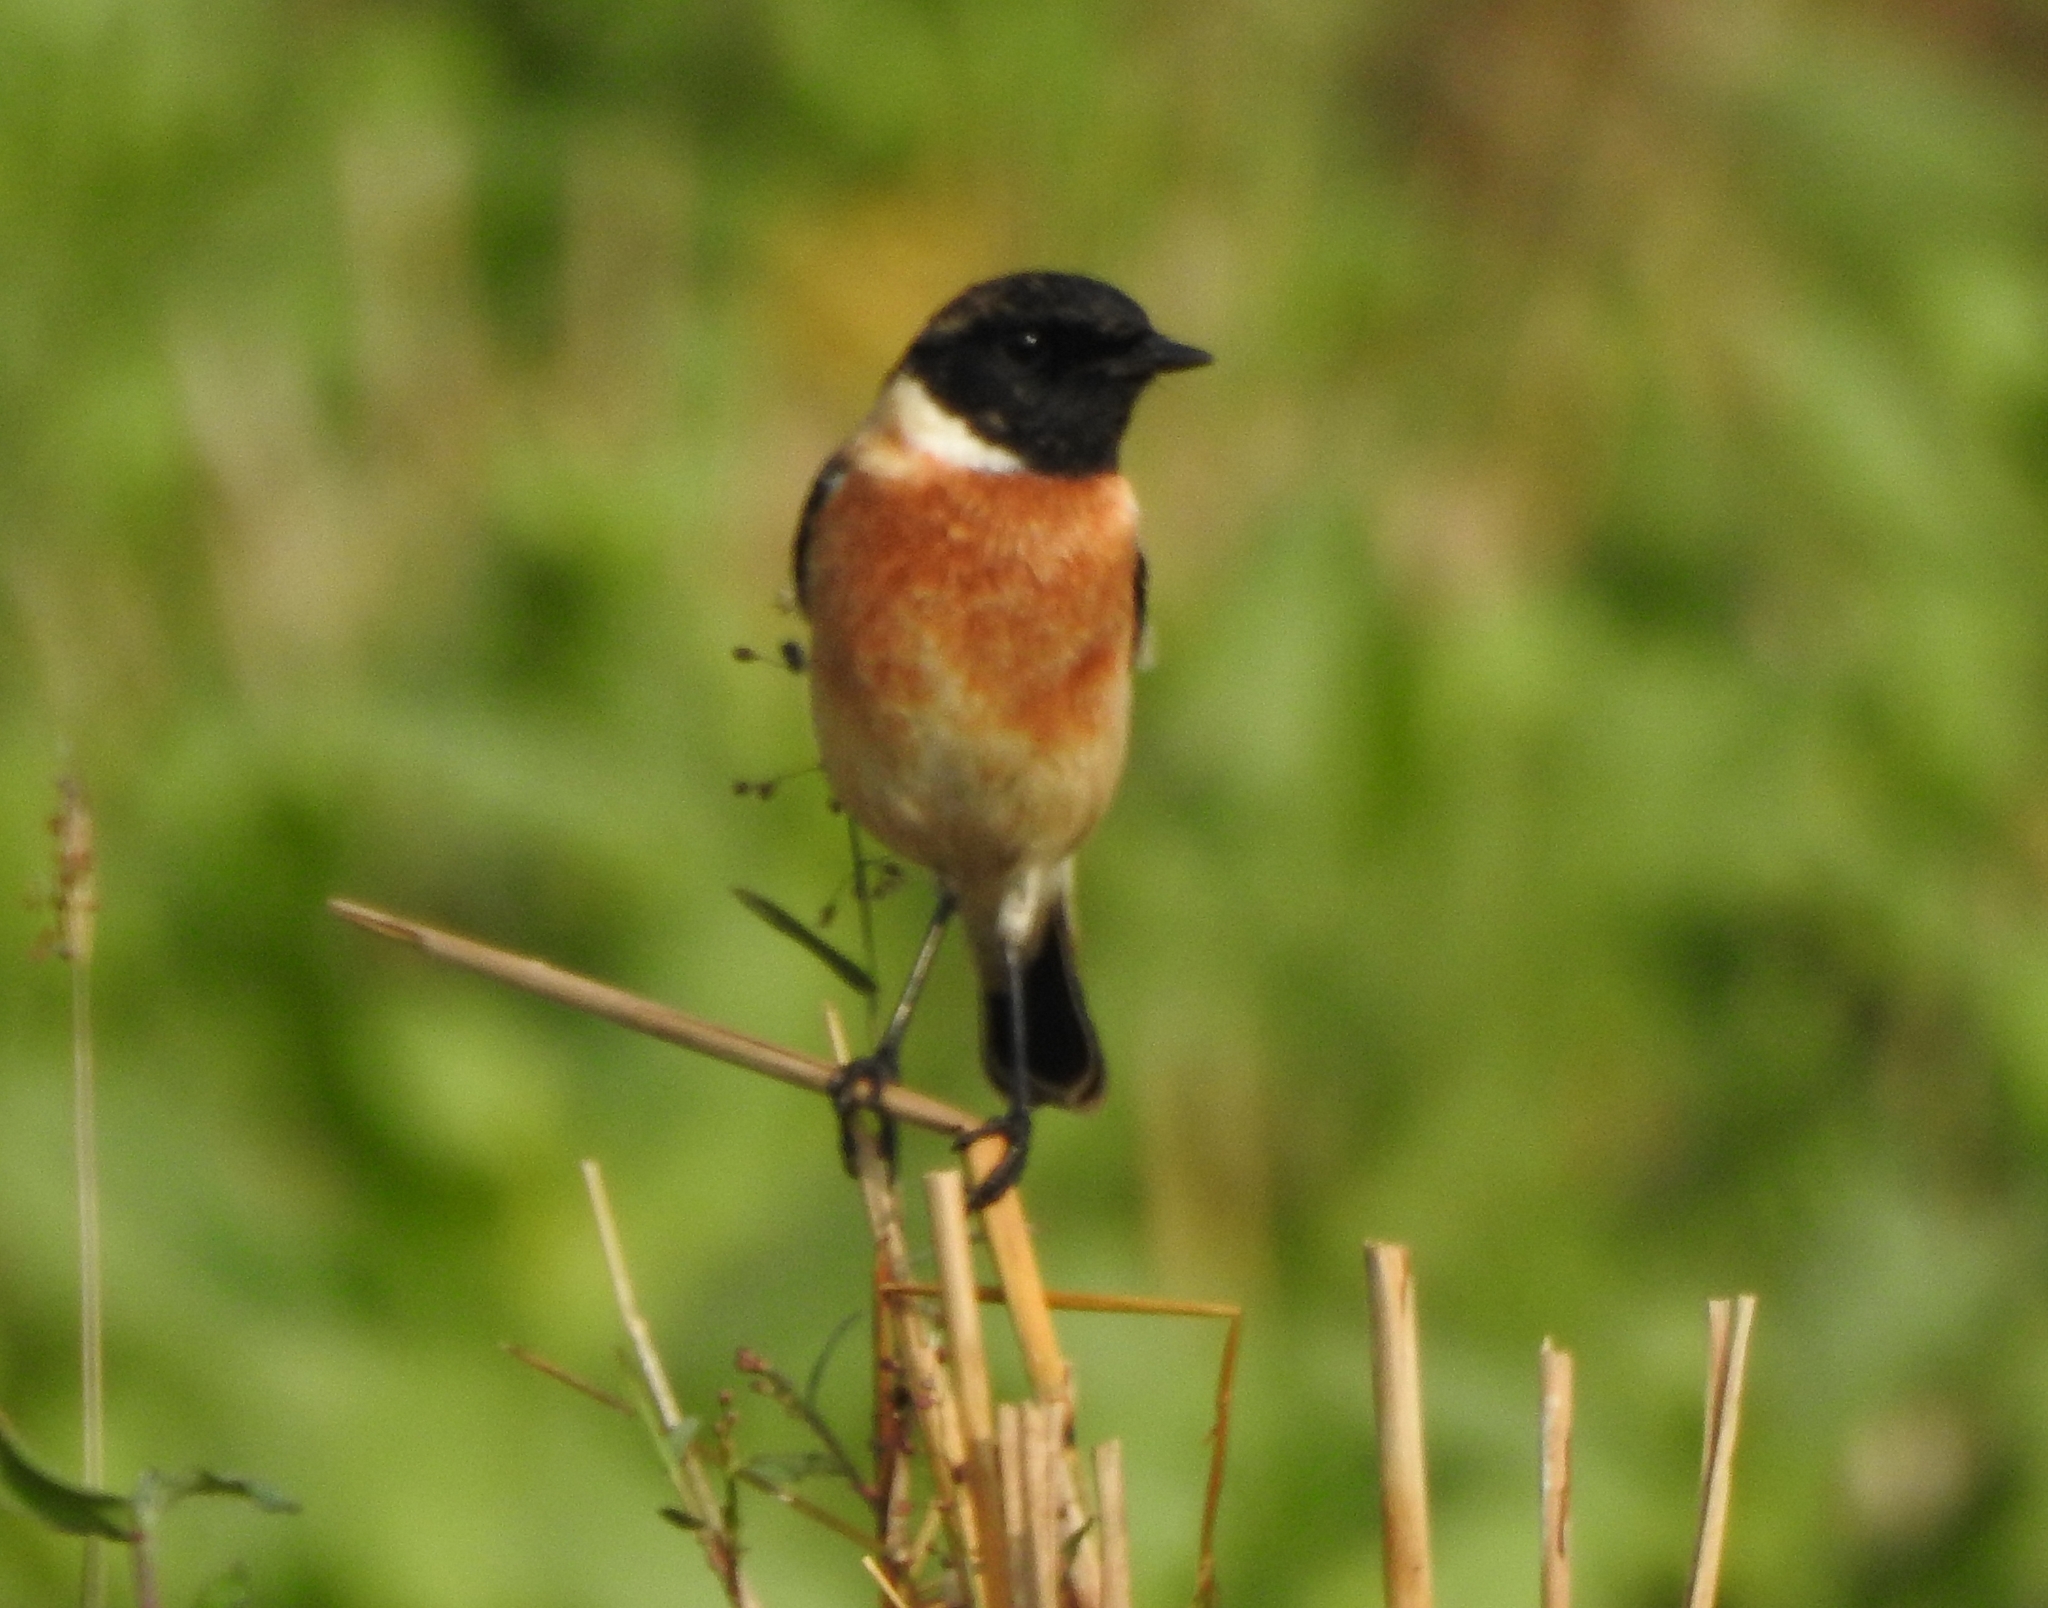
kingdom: Animalia
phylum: Chordata
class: Aves
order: Passeriformes
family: Muscicapidae
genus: Saxicola
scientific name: Saxicola maurus
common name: Siberian stonechat
